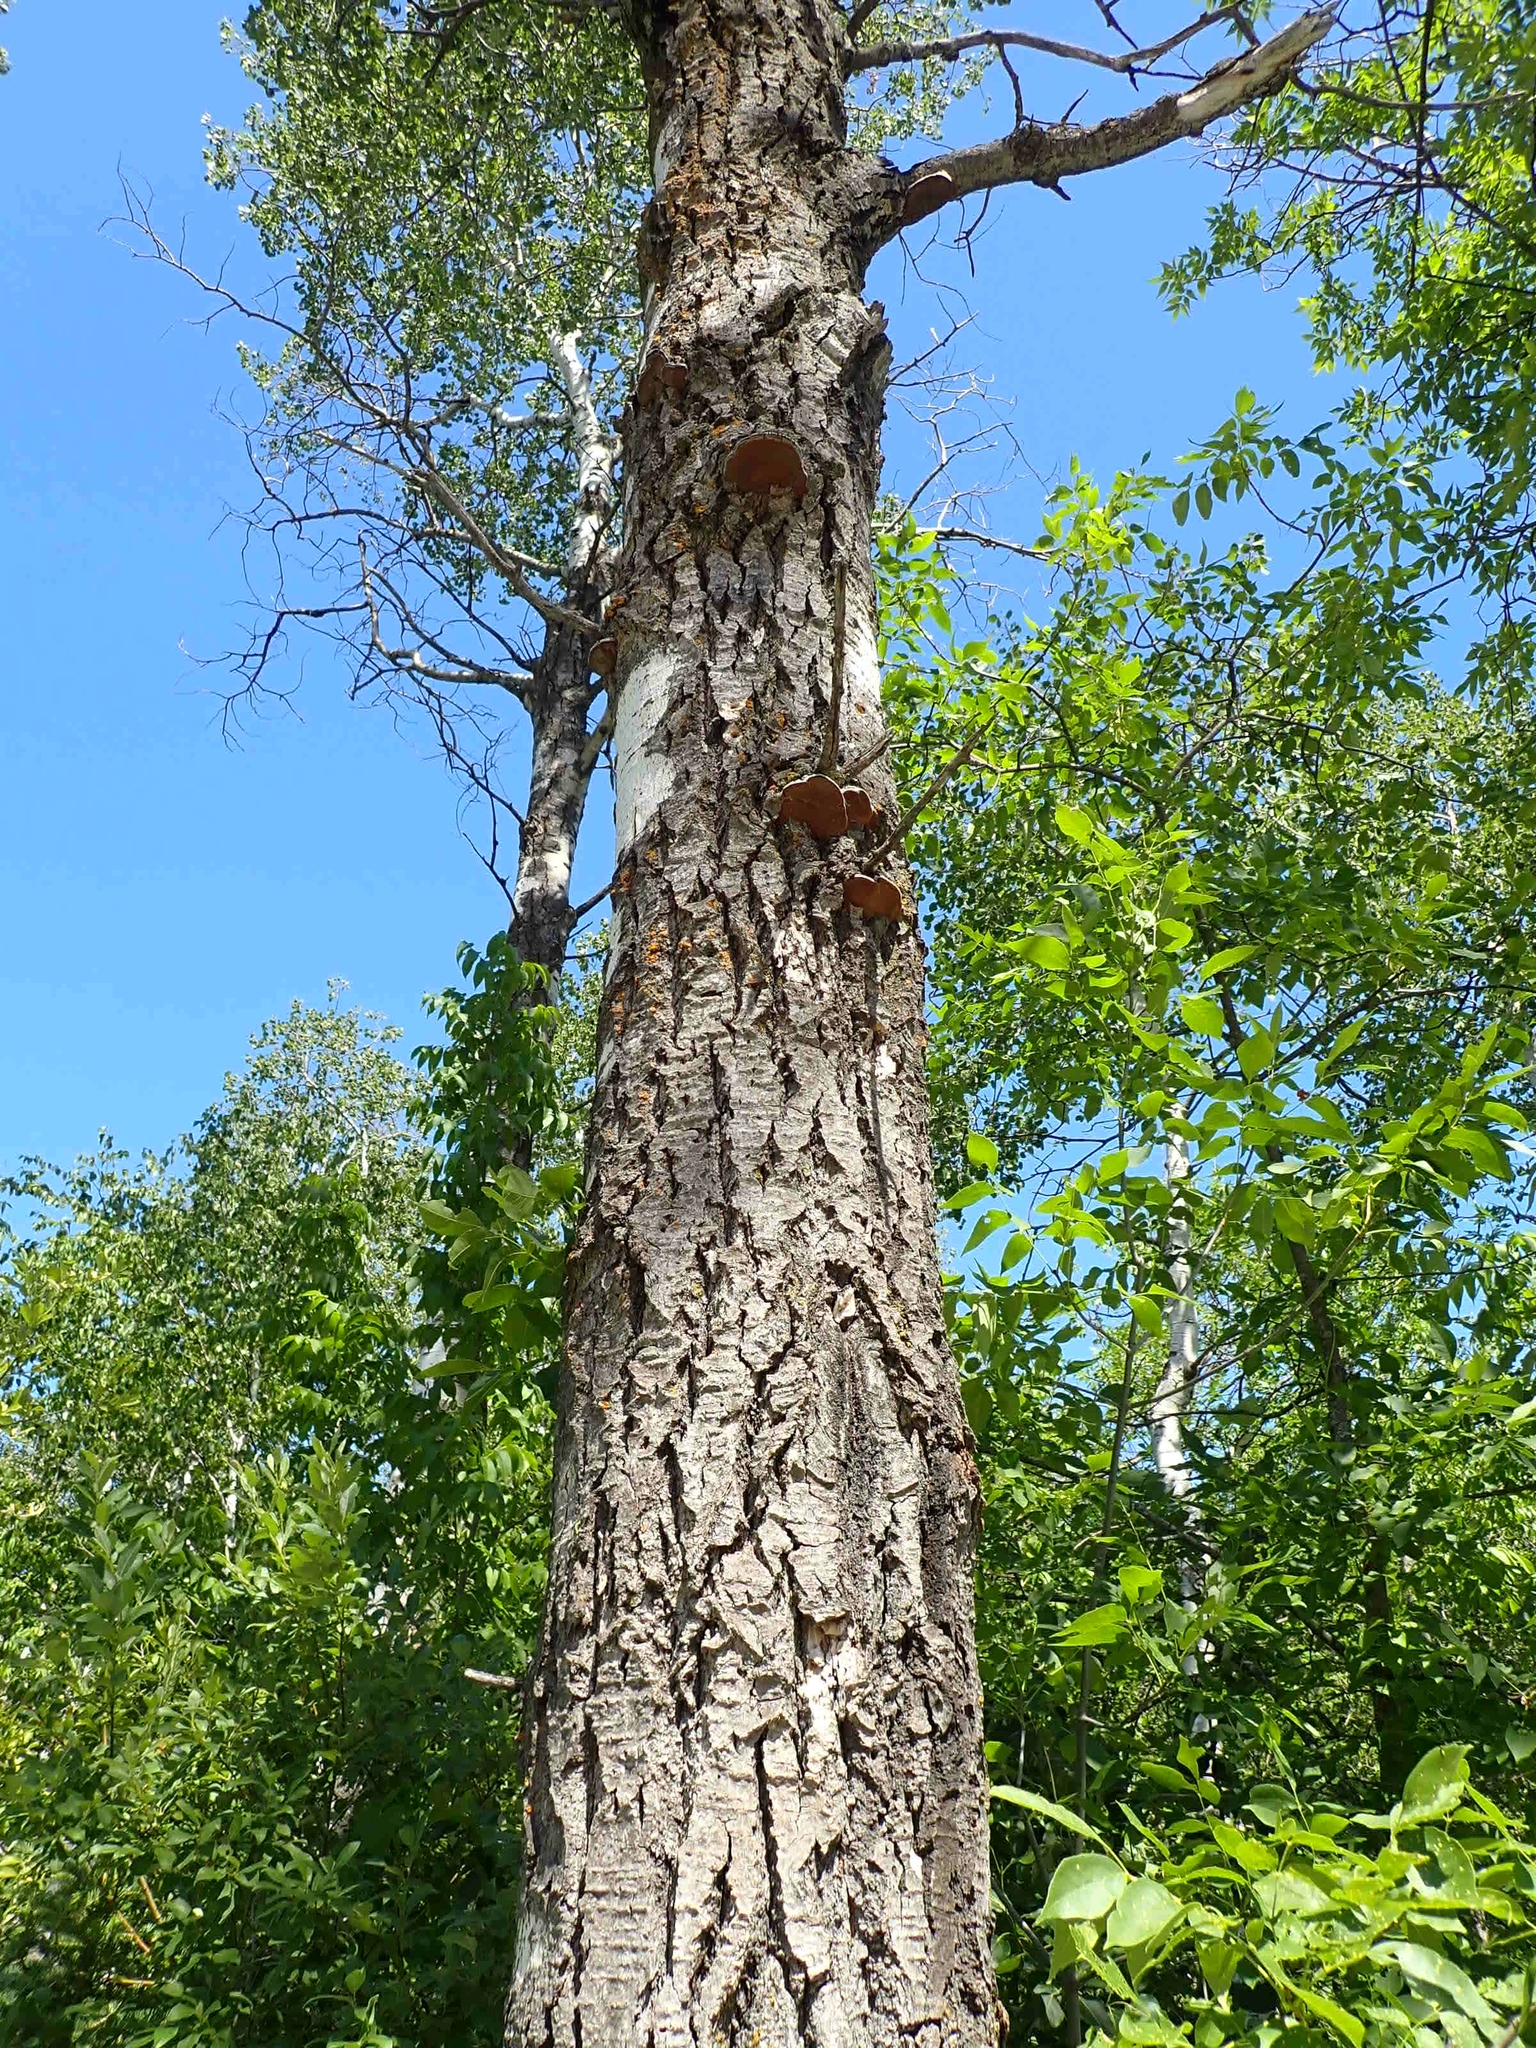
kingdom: Fungi
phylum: Basidiomycota
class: Agaricomycetes
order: Hymenochaetales
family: Hymenochaetaceae
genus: Phellinus
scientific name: Phellinus tremulae
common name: Aspen bracket
